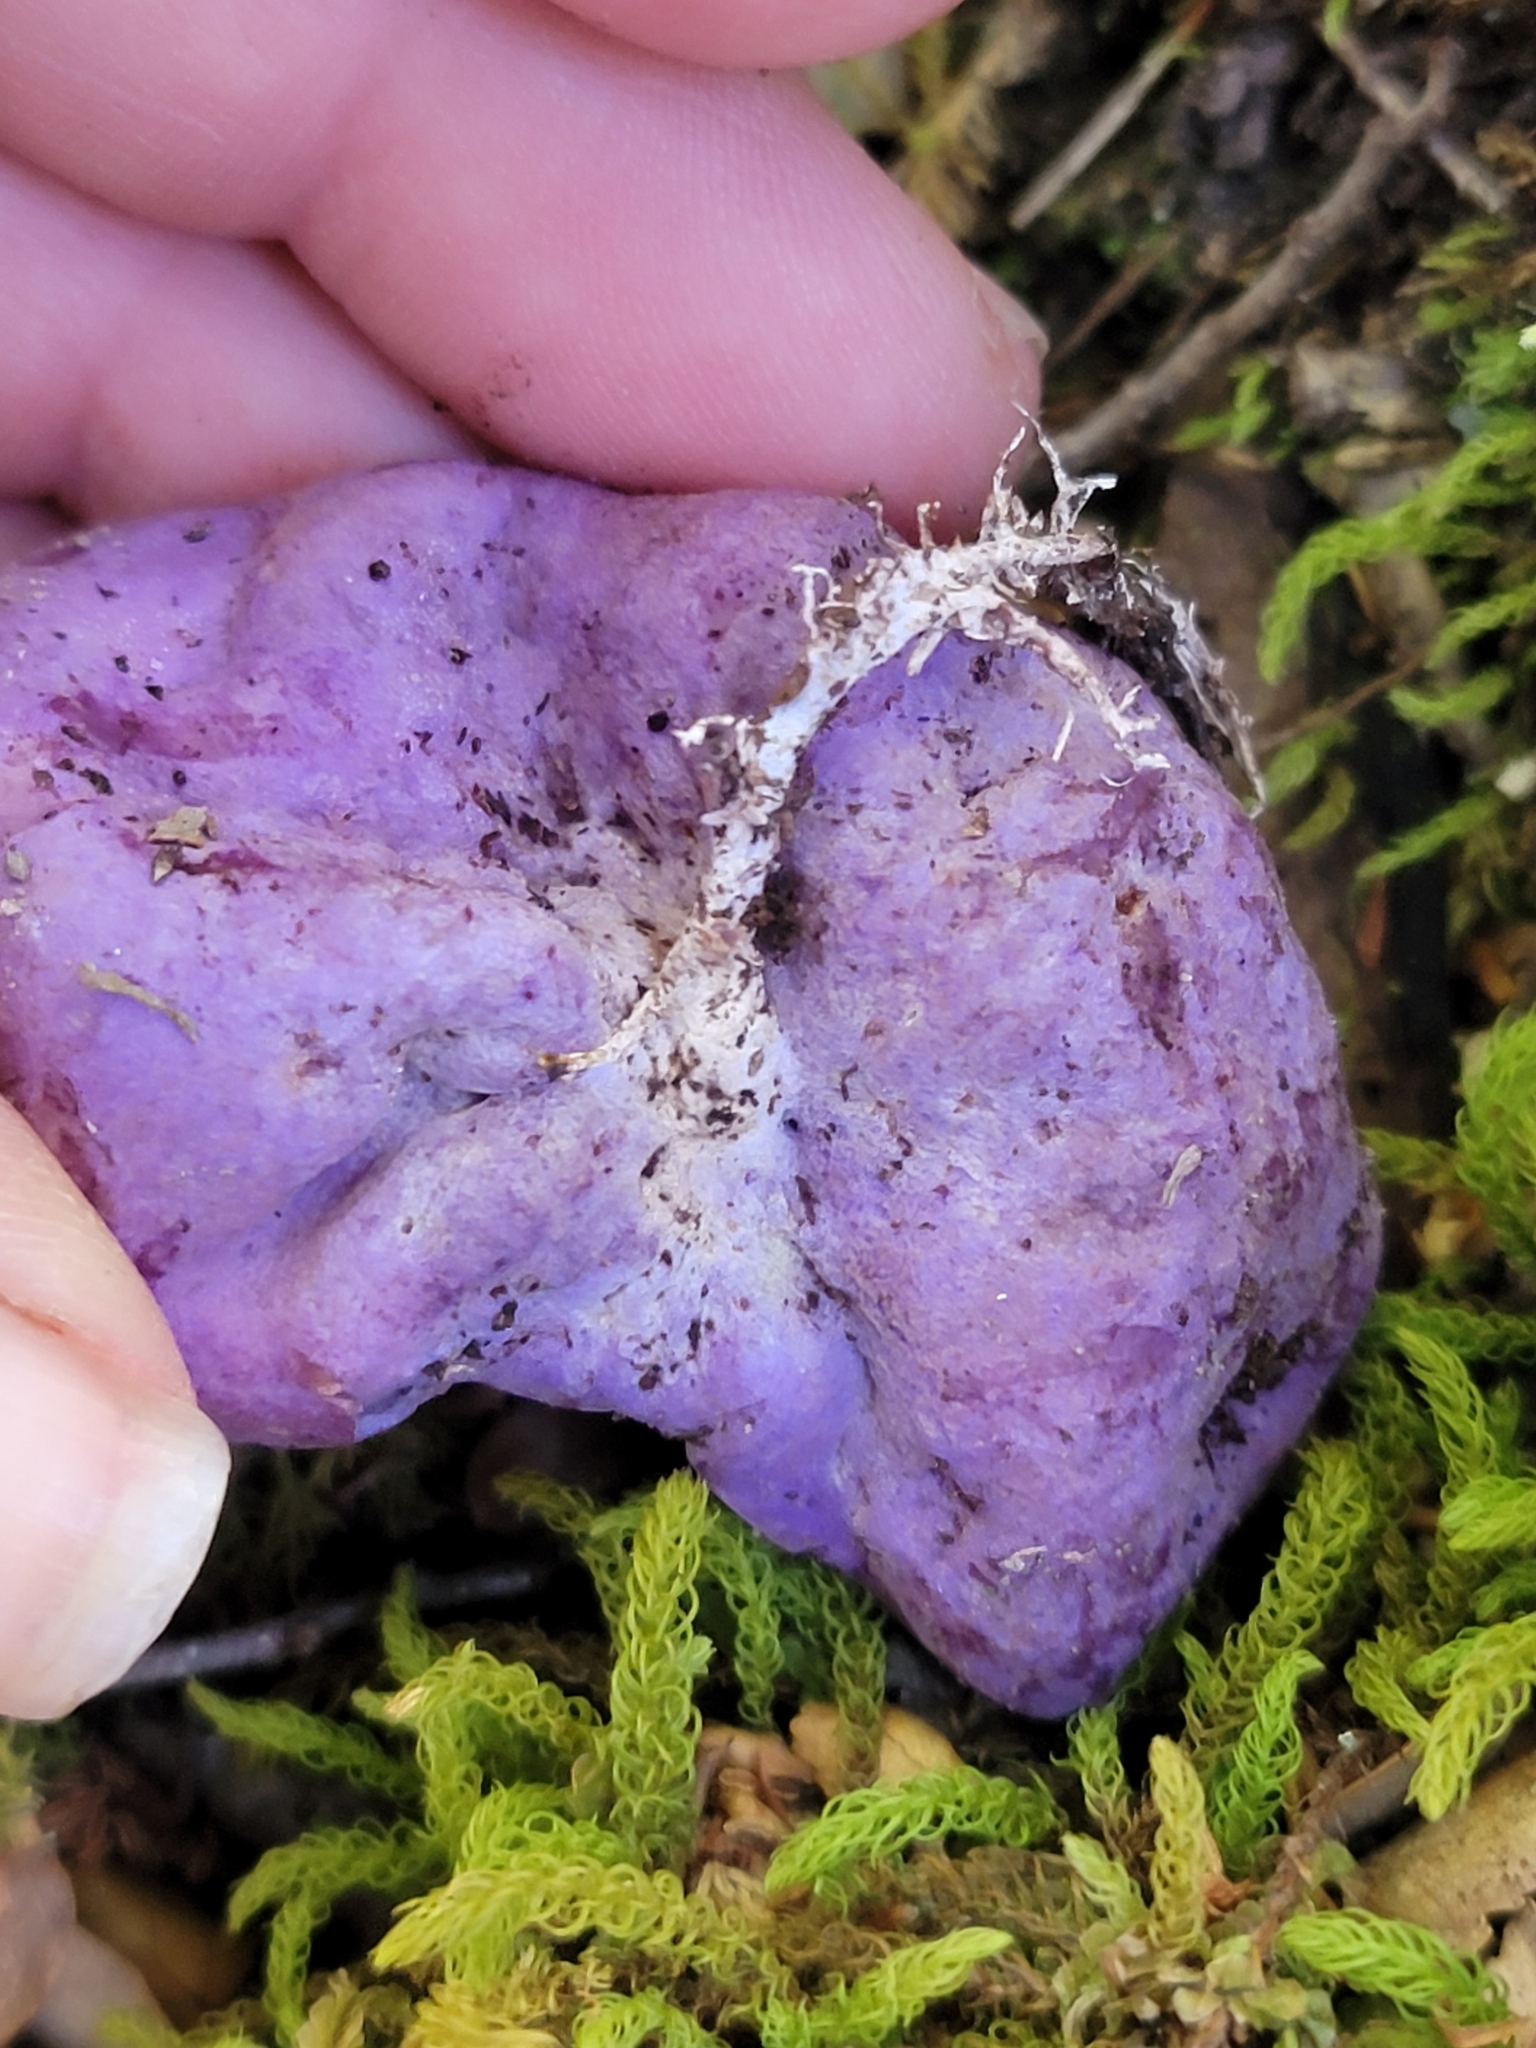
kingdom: Fungi
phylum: Basidiomycota
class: Agaricomycetes
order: Hysterangiales
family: Gallaceaceae
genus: Gallacea
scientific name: Gallacea scleroderma
